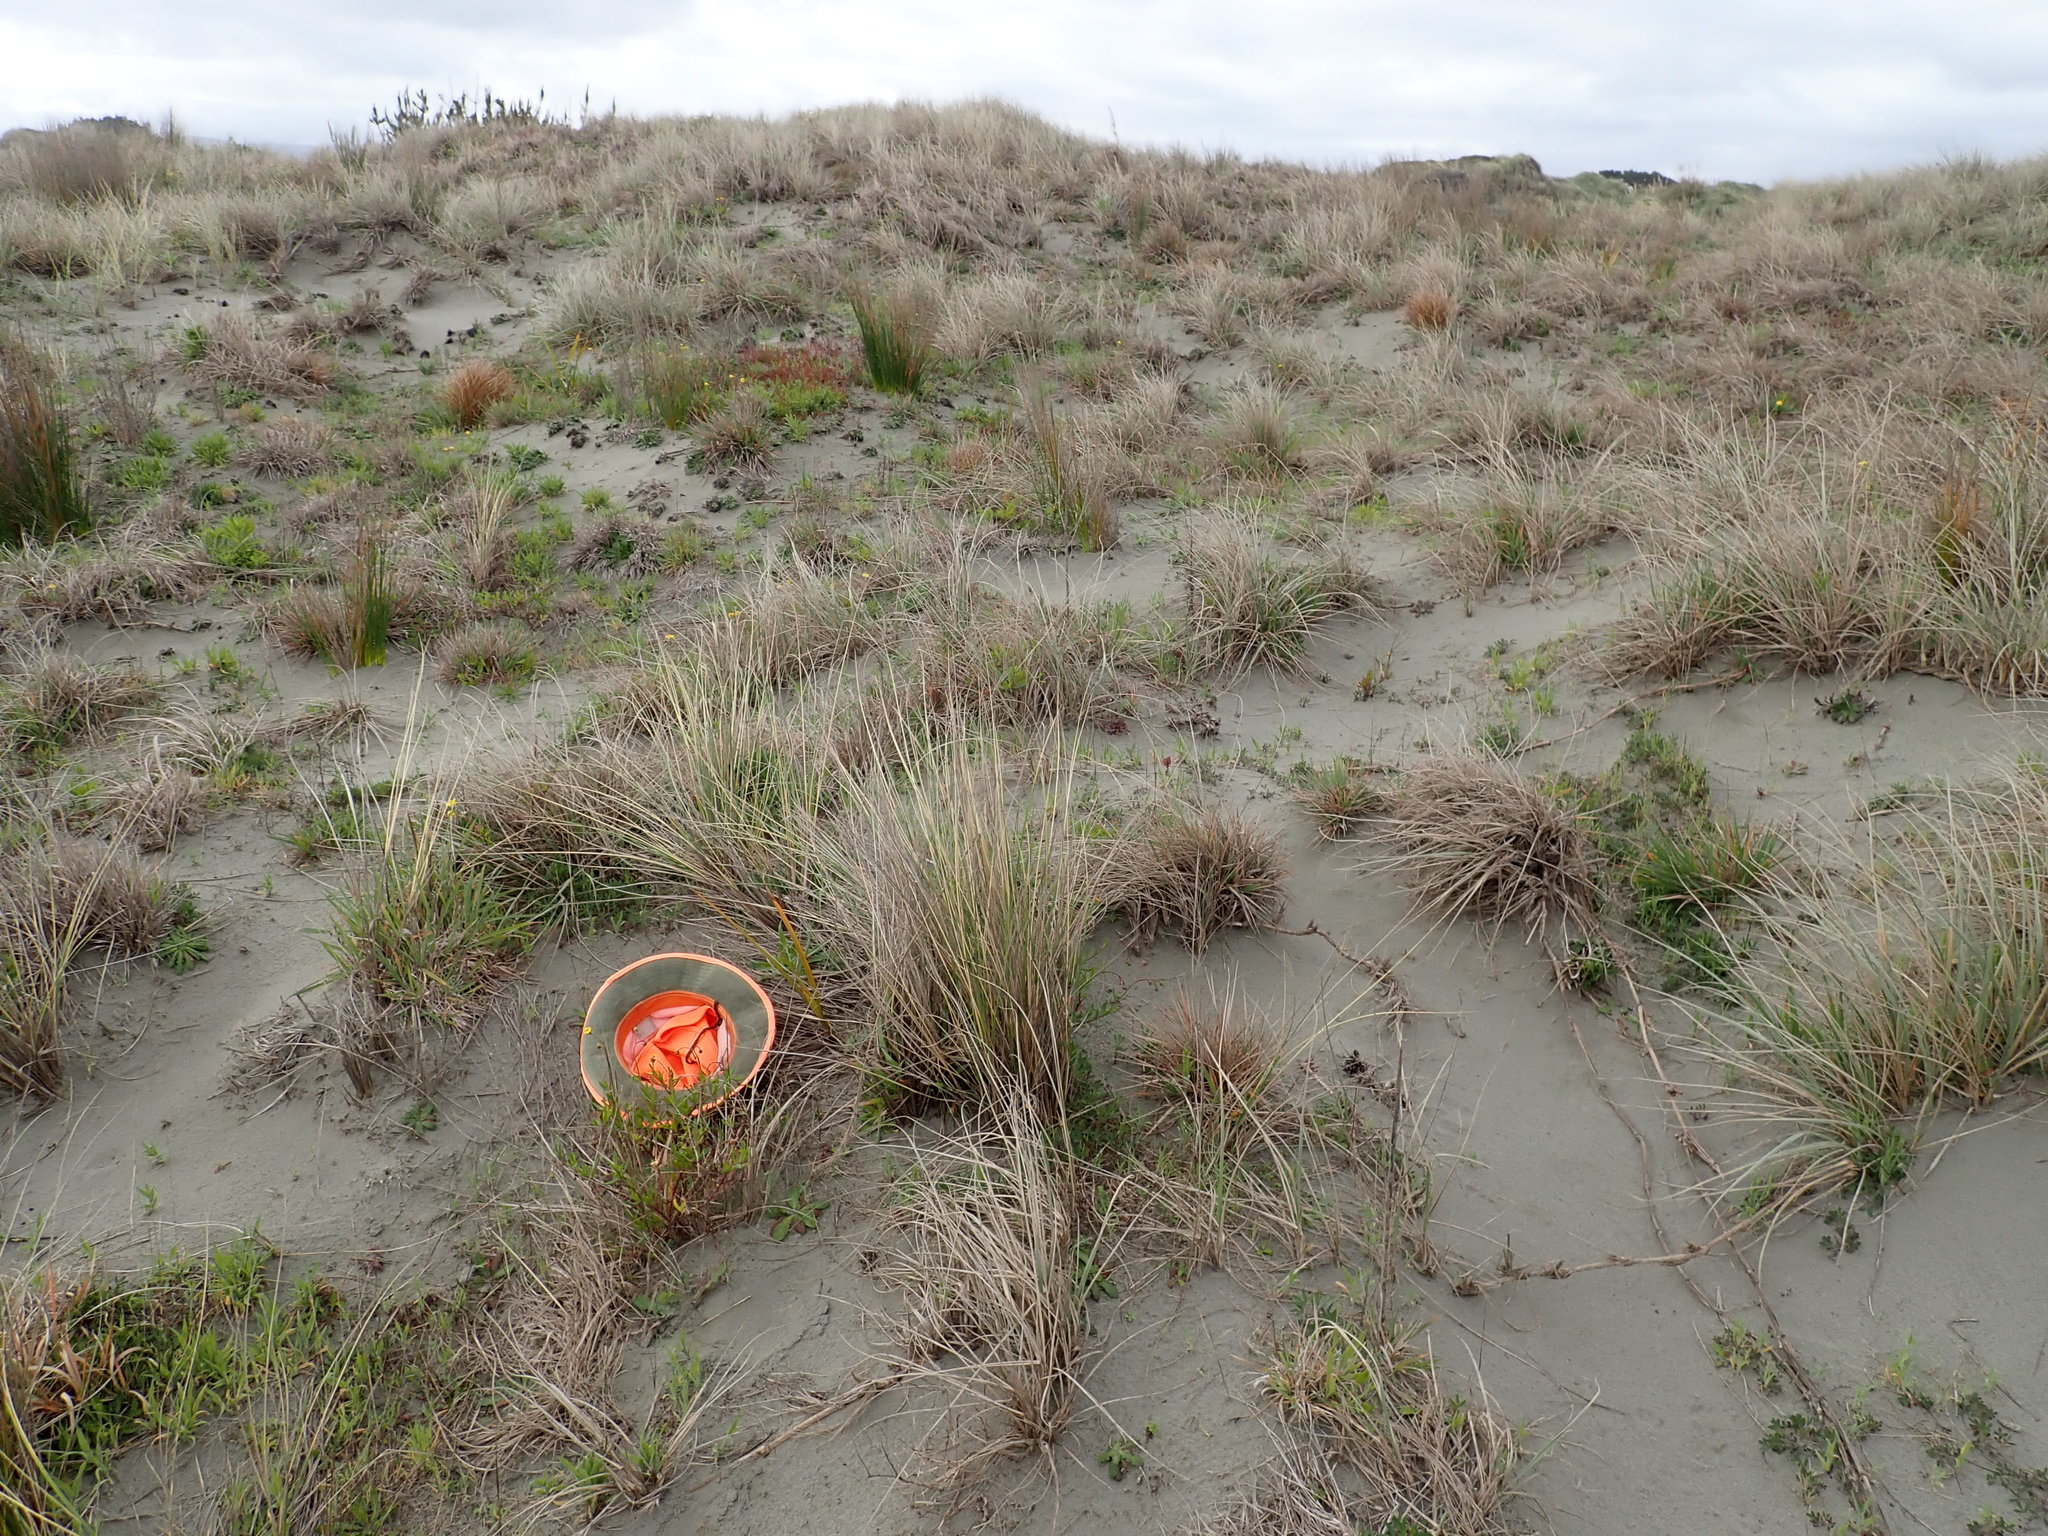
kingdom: Plantae
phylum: Tracheophyta
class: Liliopsida
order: Asparagales
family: Asphodelaceae
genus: Phormium
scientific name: Phormium tenax
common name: New zealand flax
